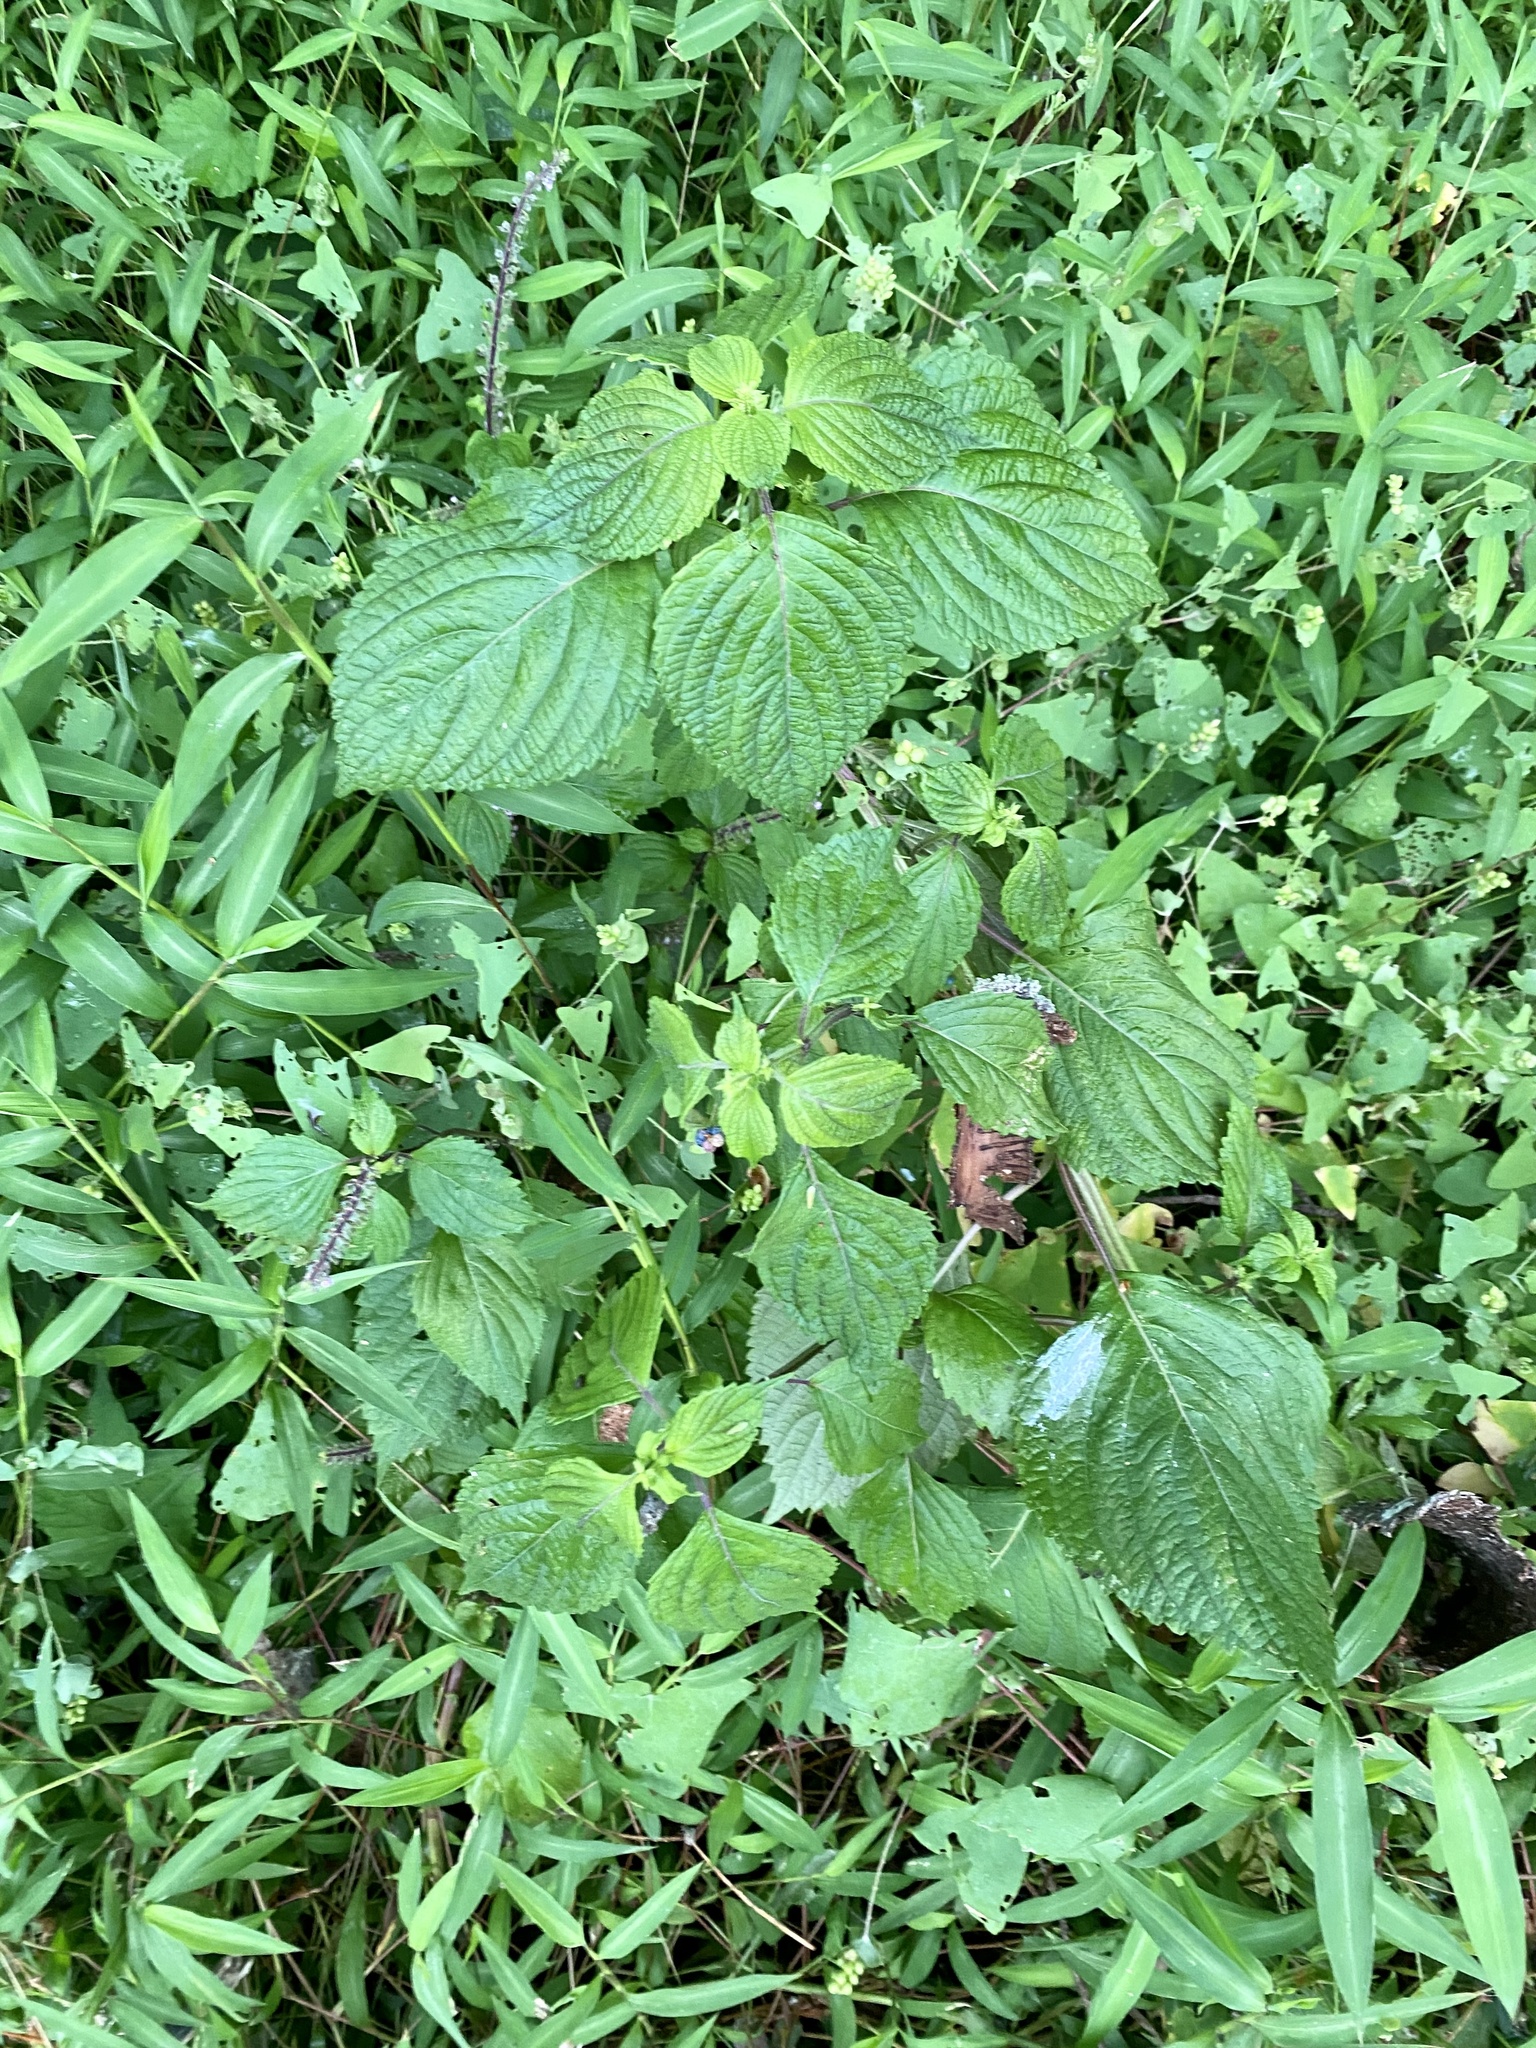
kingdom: Plantae
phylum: Tracheophyta
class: Magnoliopsida
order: Lamiales
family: Lamiaceae
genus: Perilla
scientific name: Perilla frutescens
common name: Perilla
